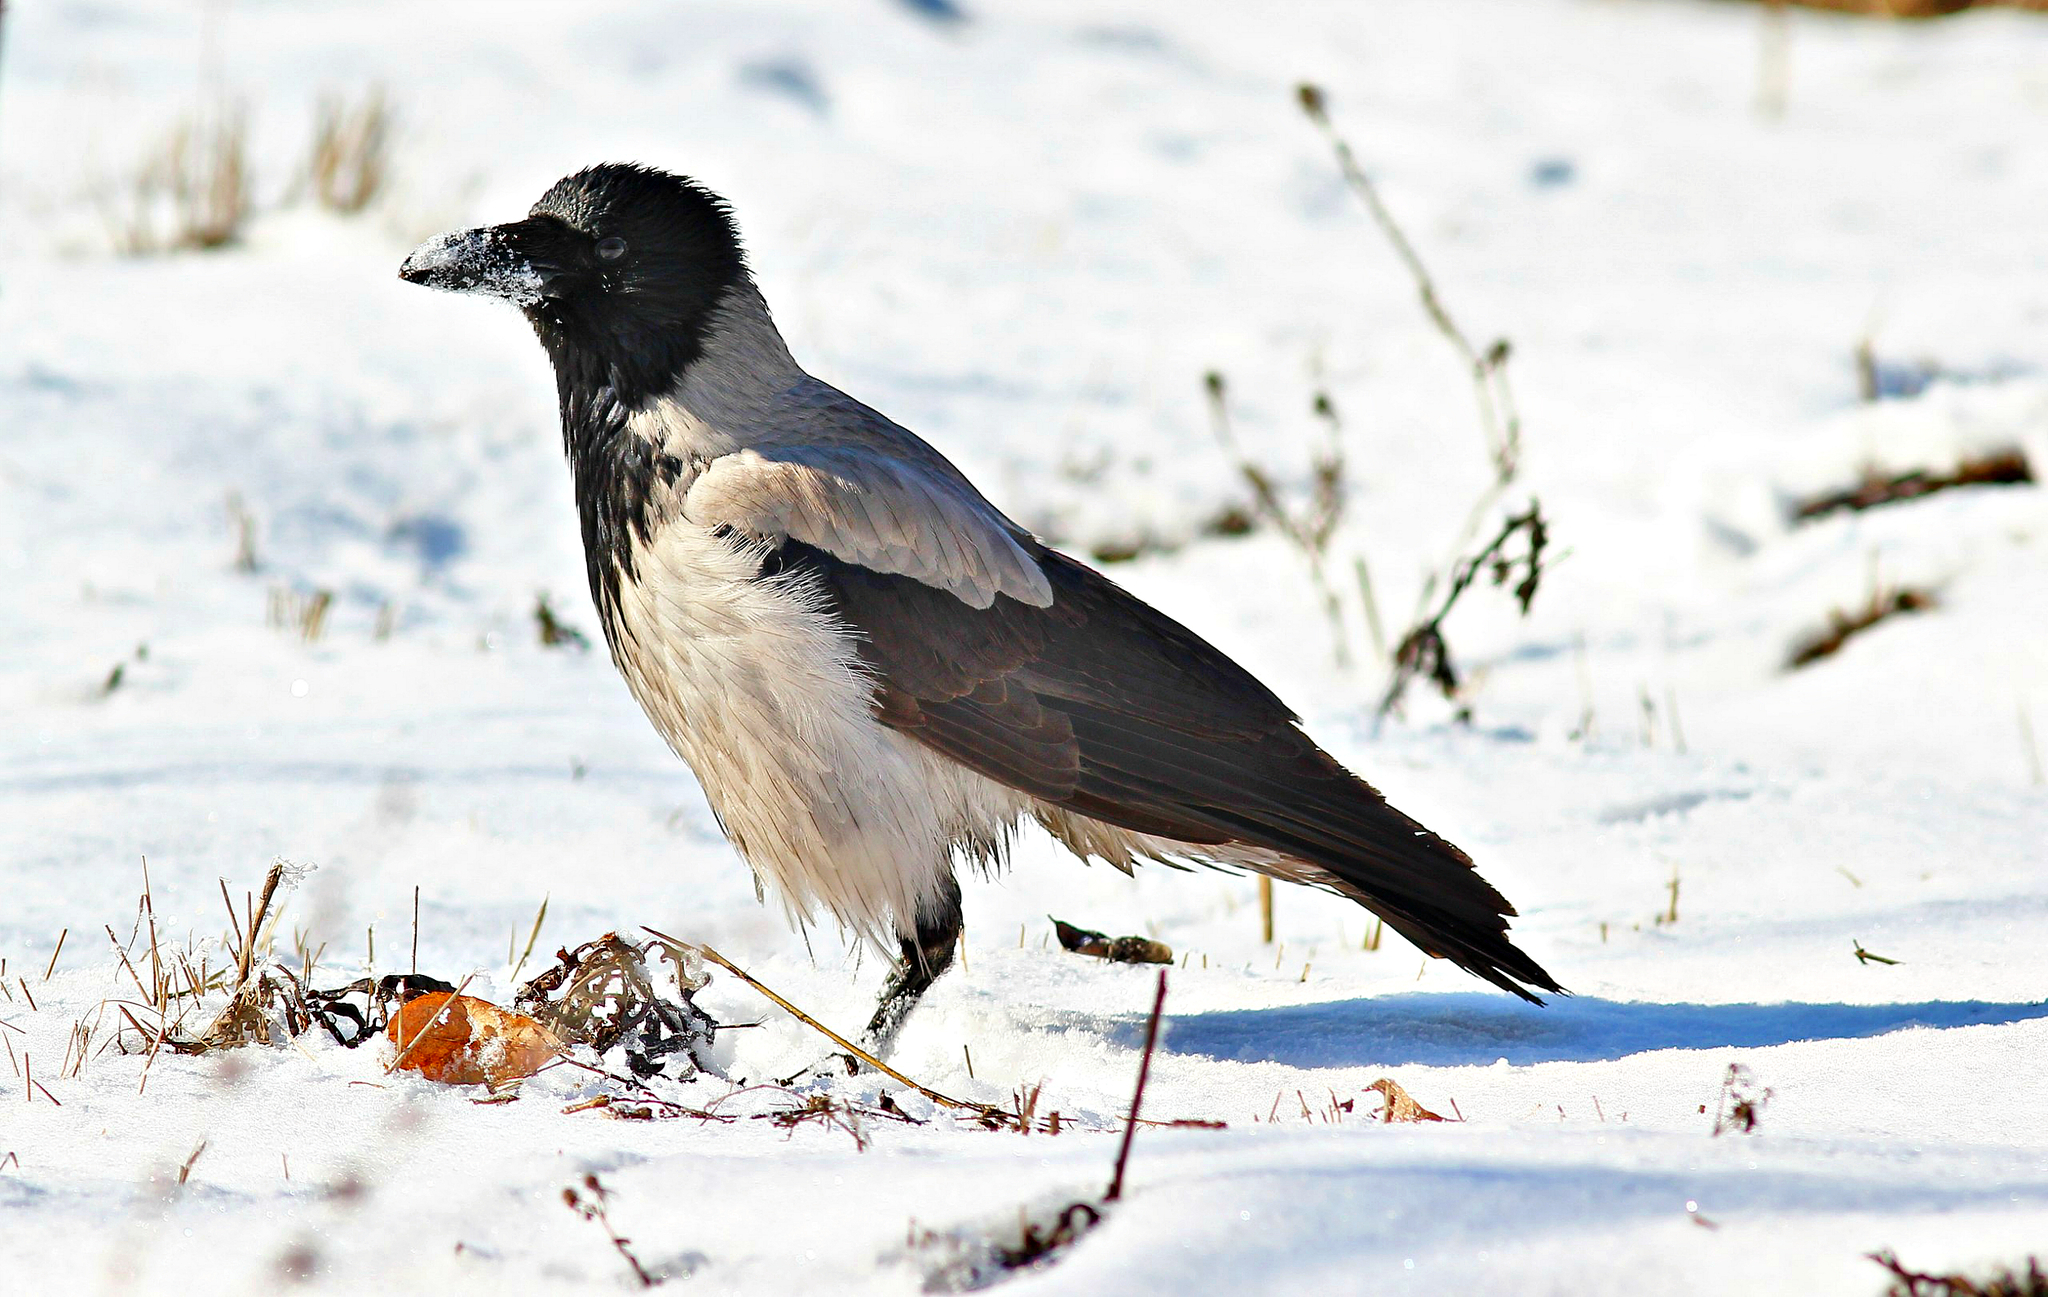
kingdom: Animalia
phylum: Chordata
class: Aves
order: Passeriformes
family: Corvidae
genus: Corvus
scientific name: Corvus cornix
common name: Hooded crow
